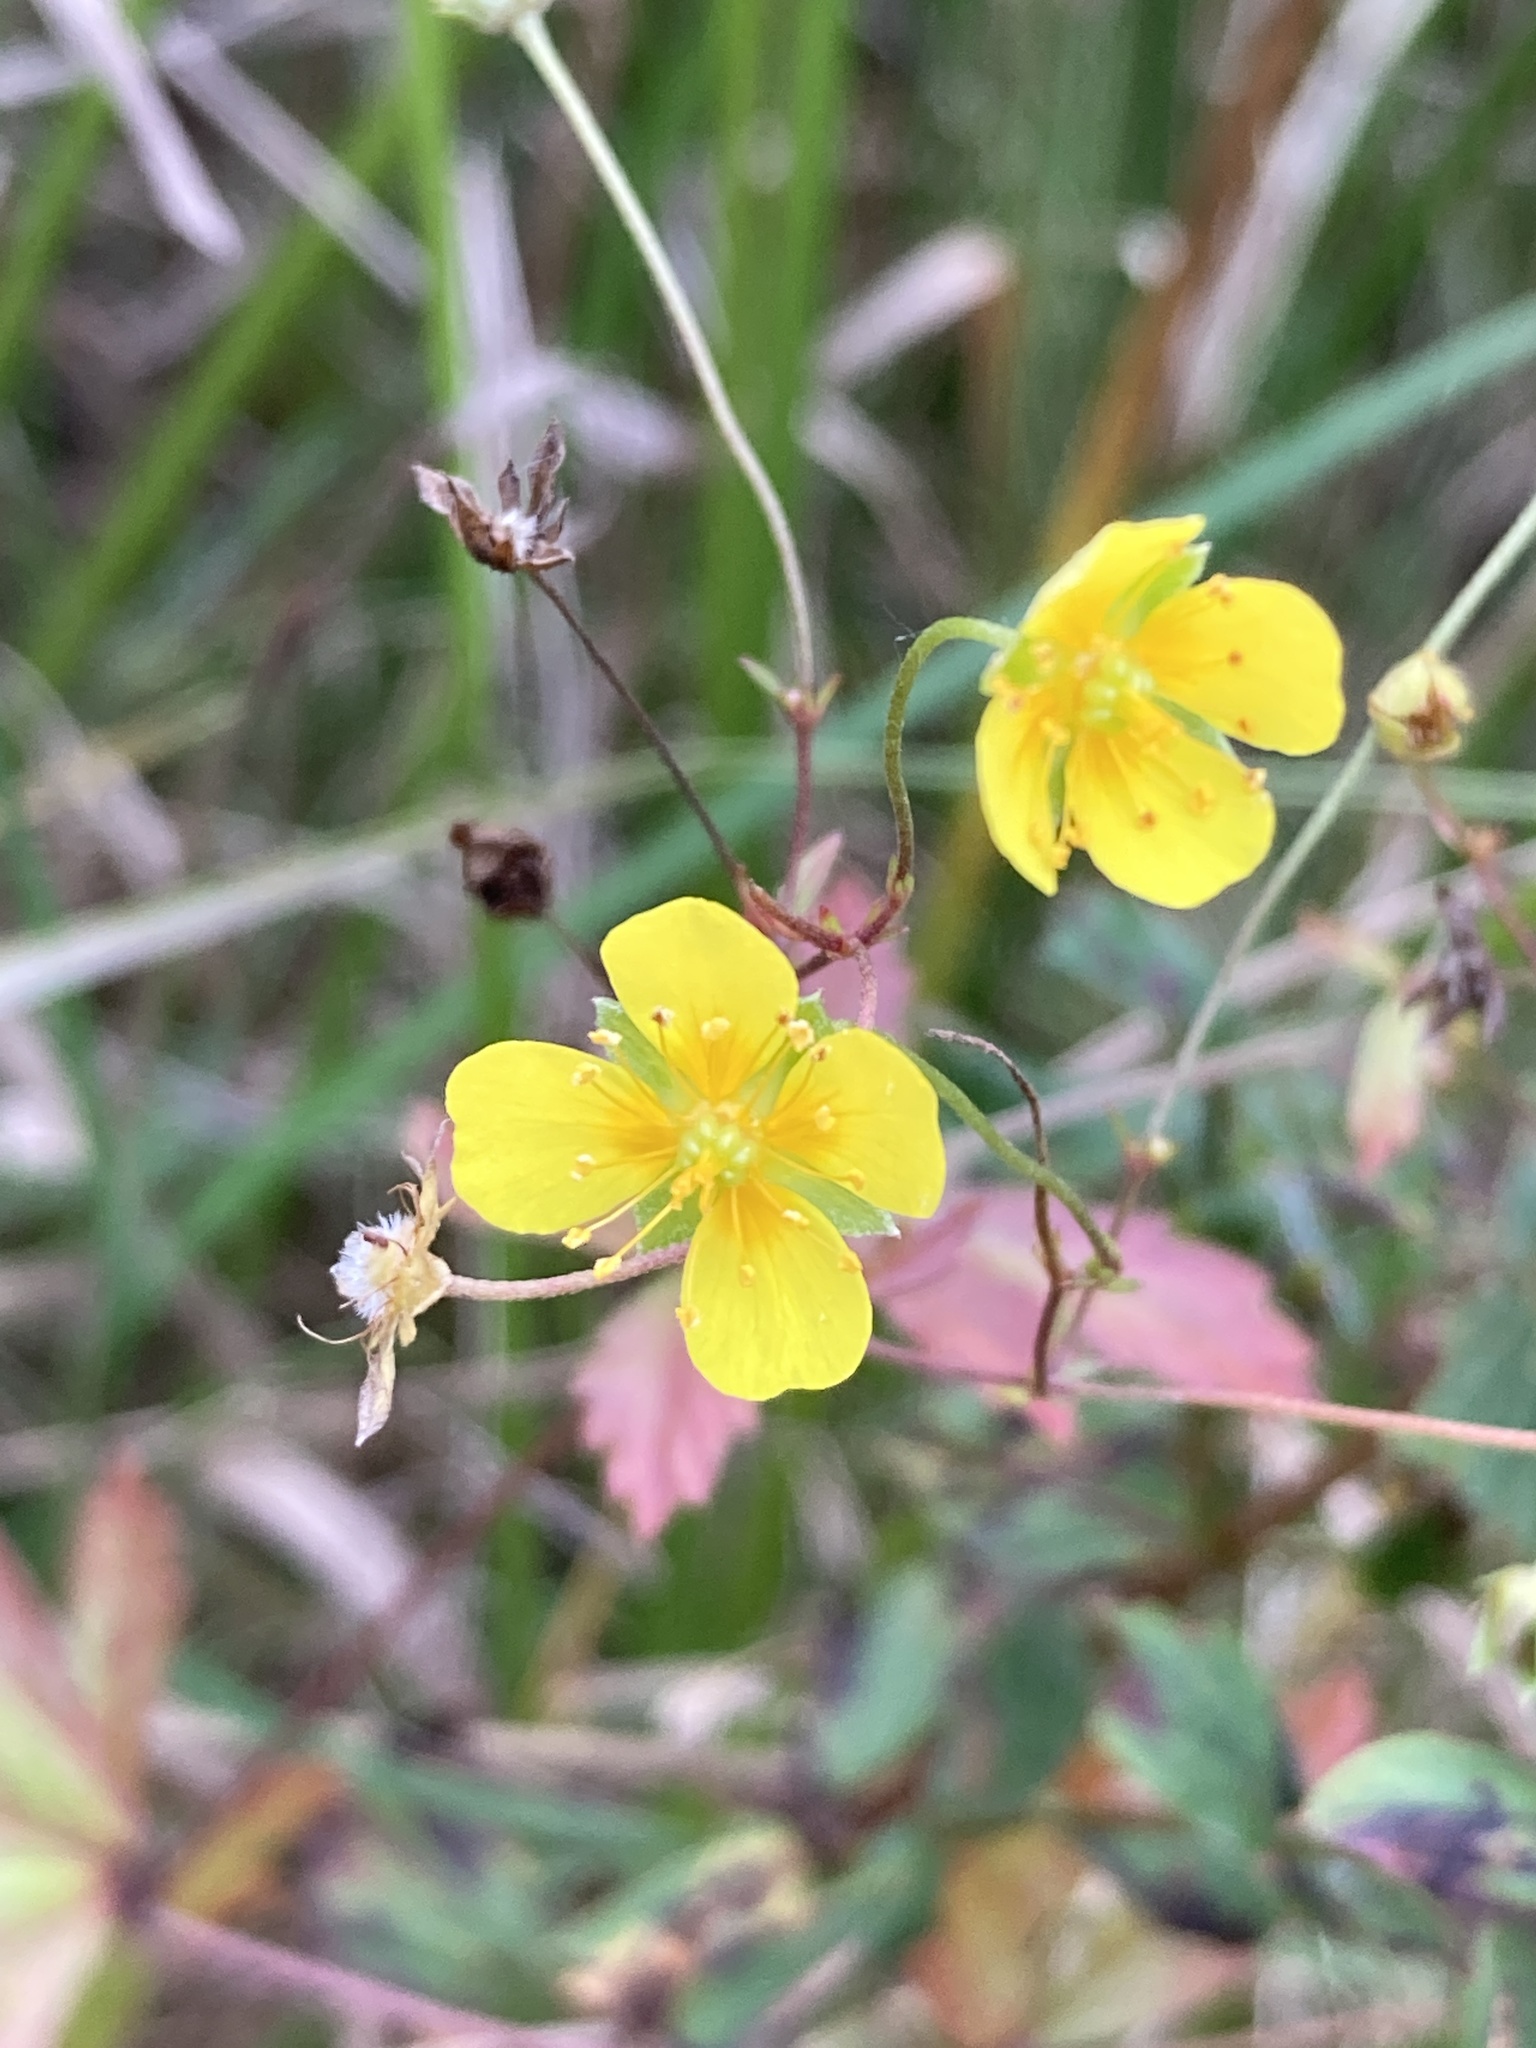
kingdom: Plantae
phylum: Tracheophyta
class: Magnoliopsida
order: Rosales
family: Rosaceae
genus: Potentilla
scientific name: Potentilla erecta
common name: Tormentil
